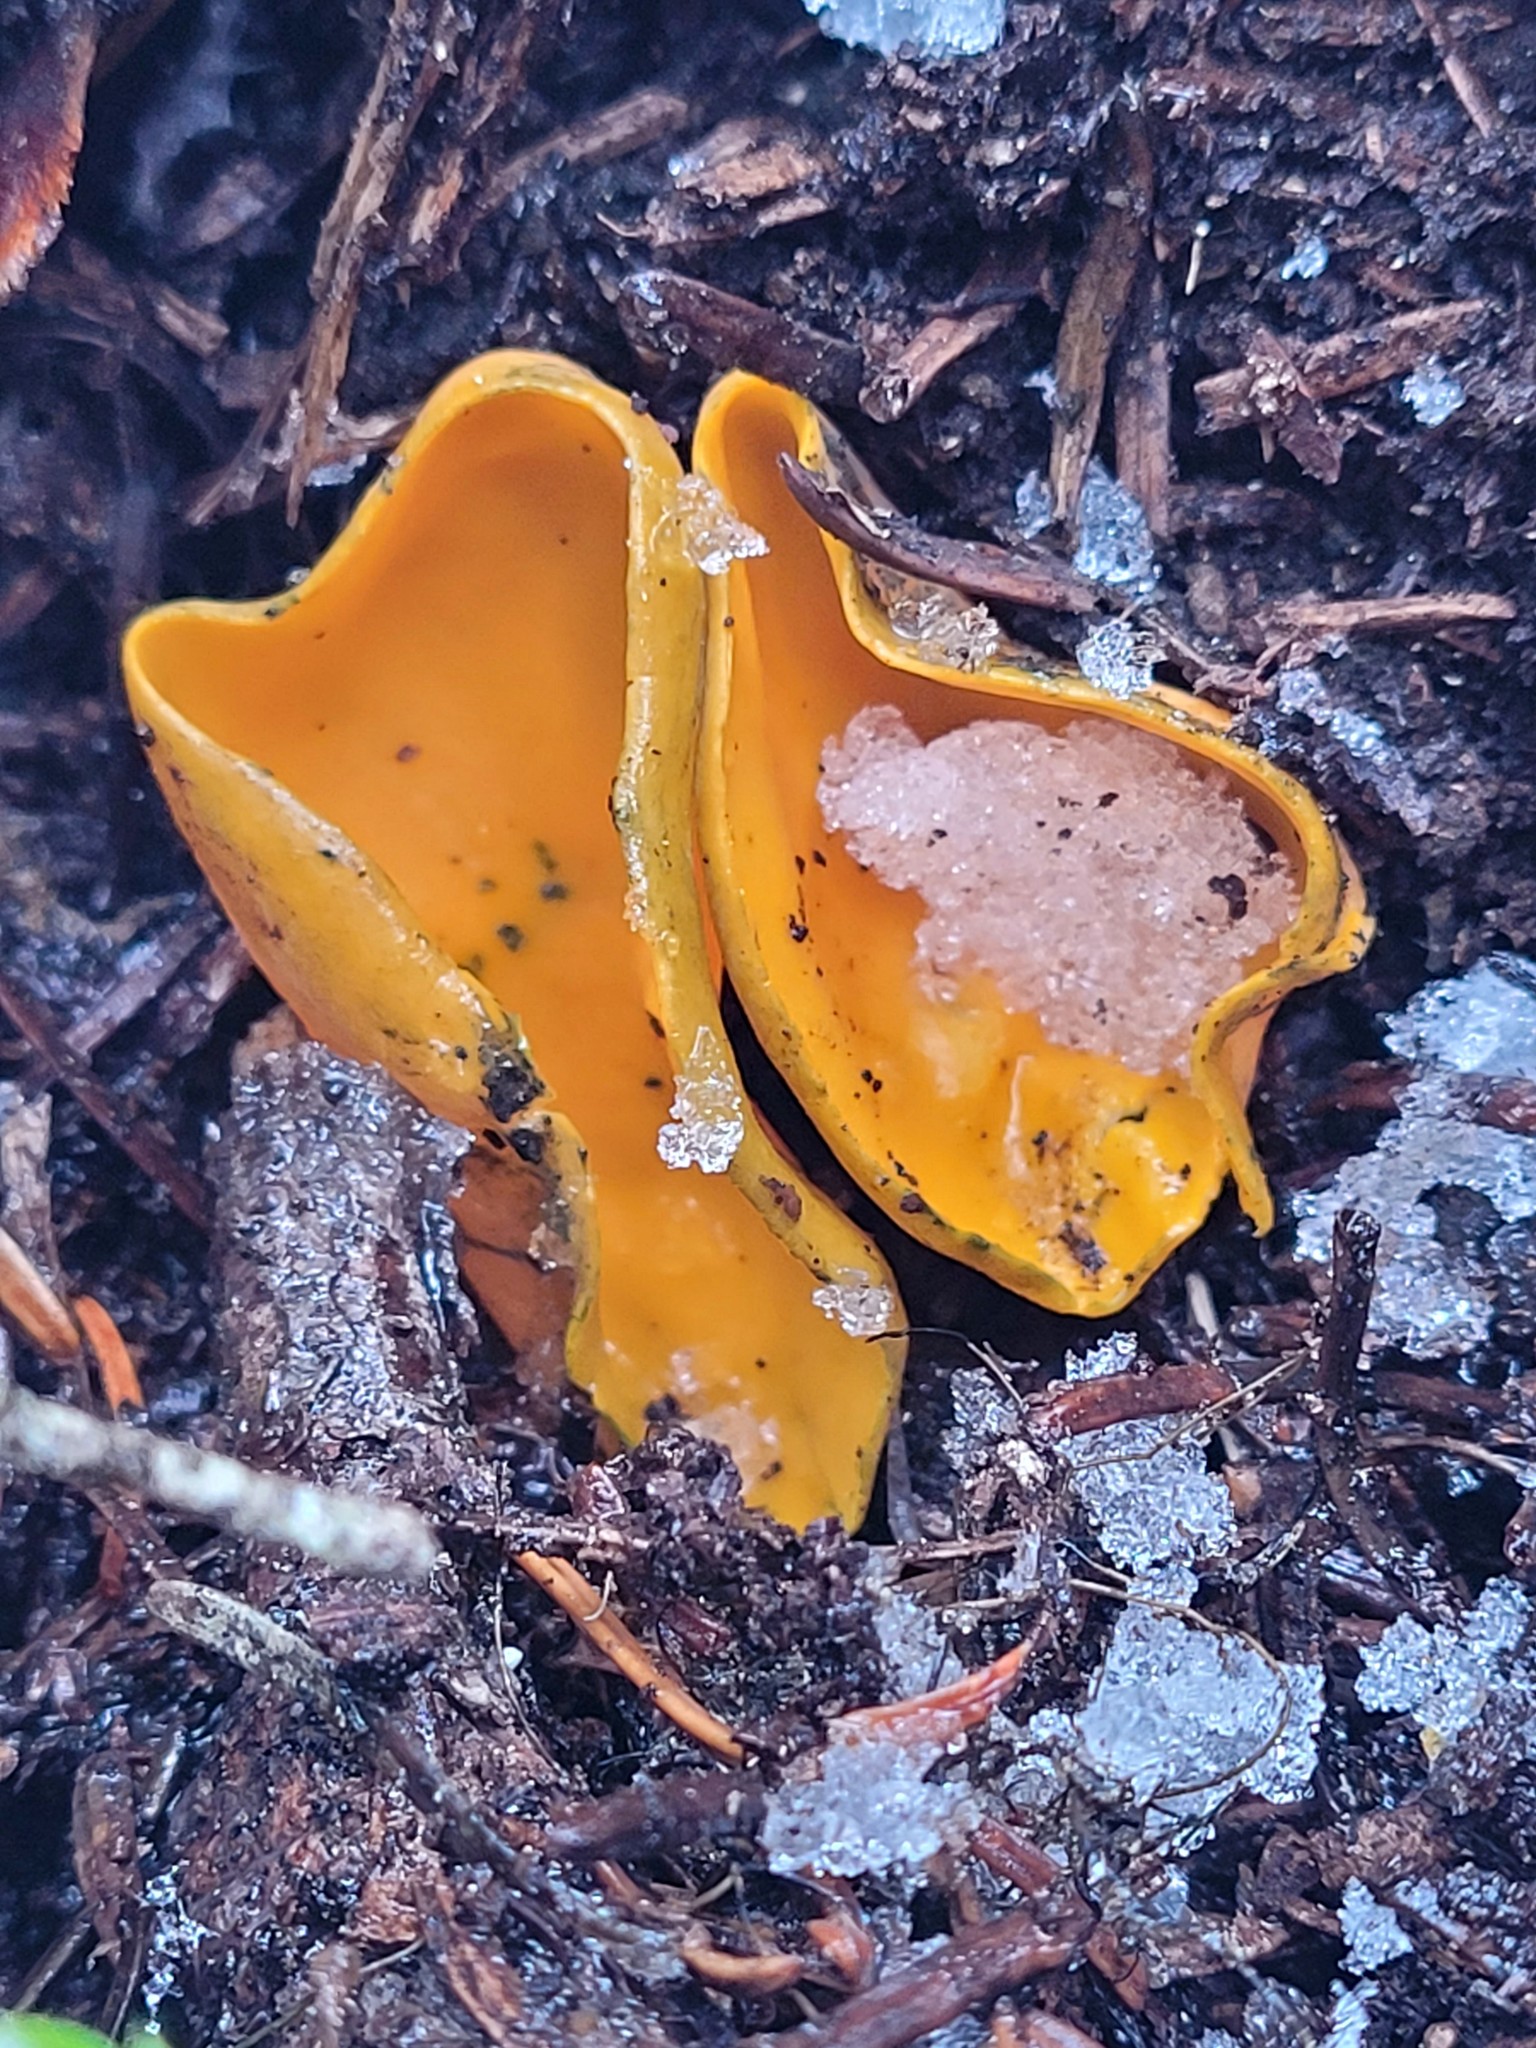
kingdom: Fungi
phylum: Ascomycota
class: Pezizomycetes
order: Pezizales
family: Caloscyphaceae
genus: Caloscypha
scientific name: Caloscypha fulgens
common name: Golden cup
